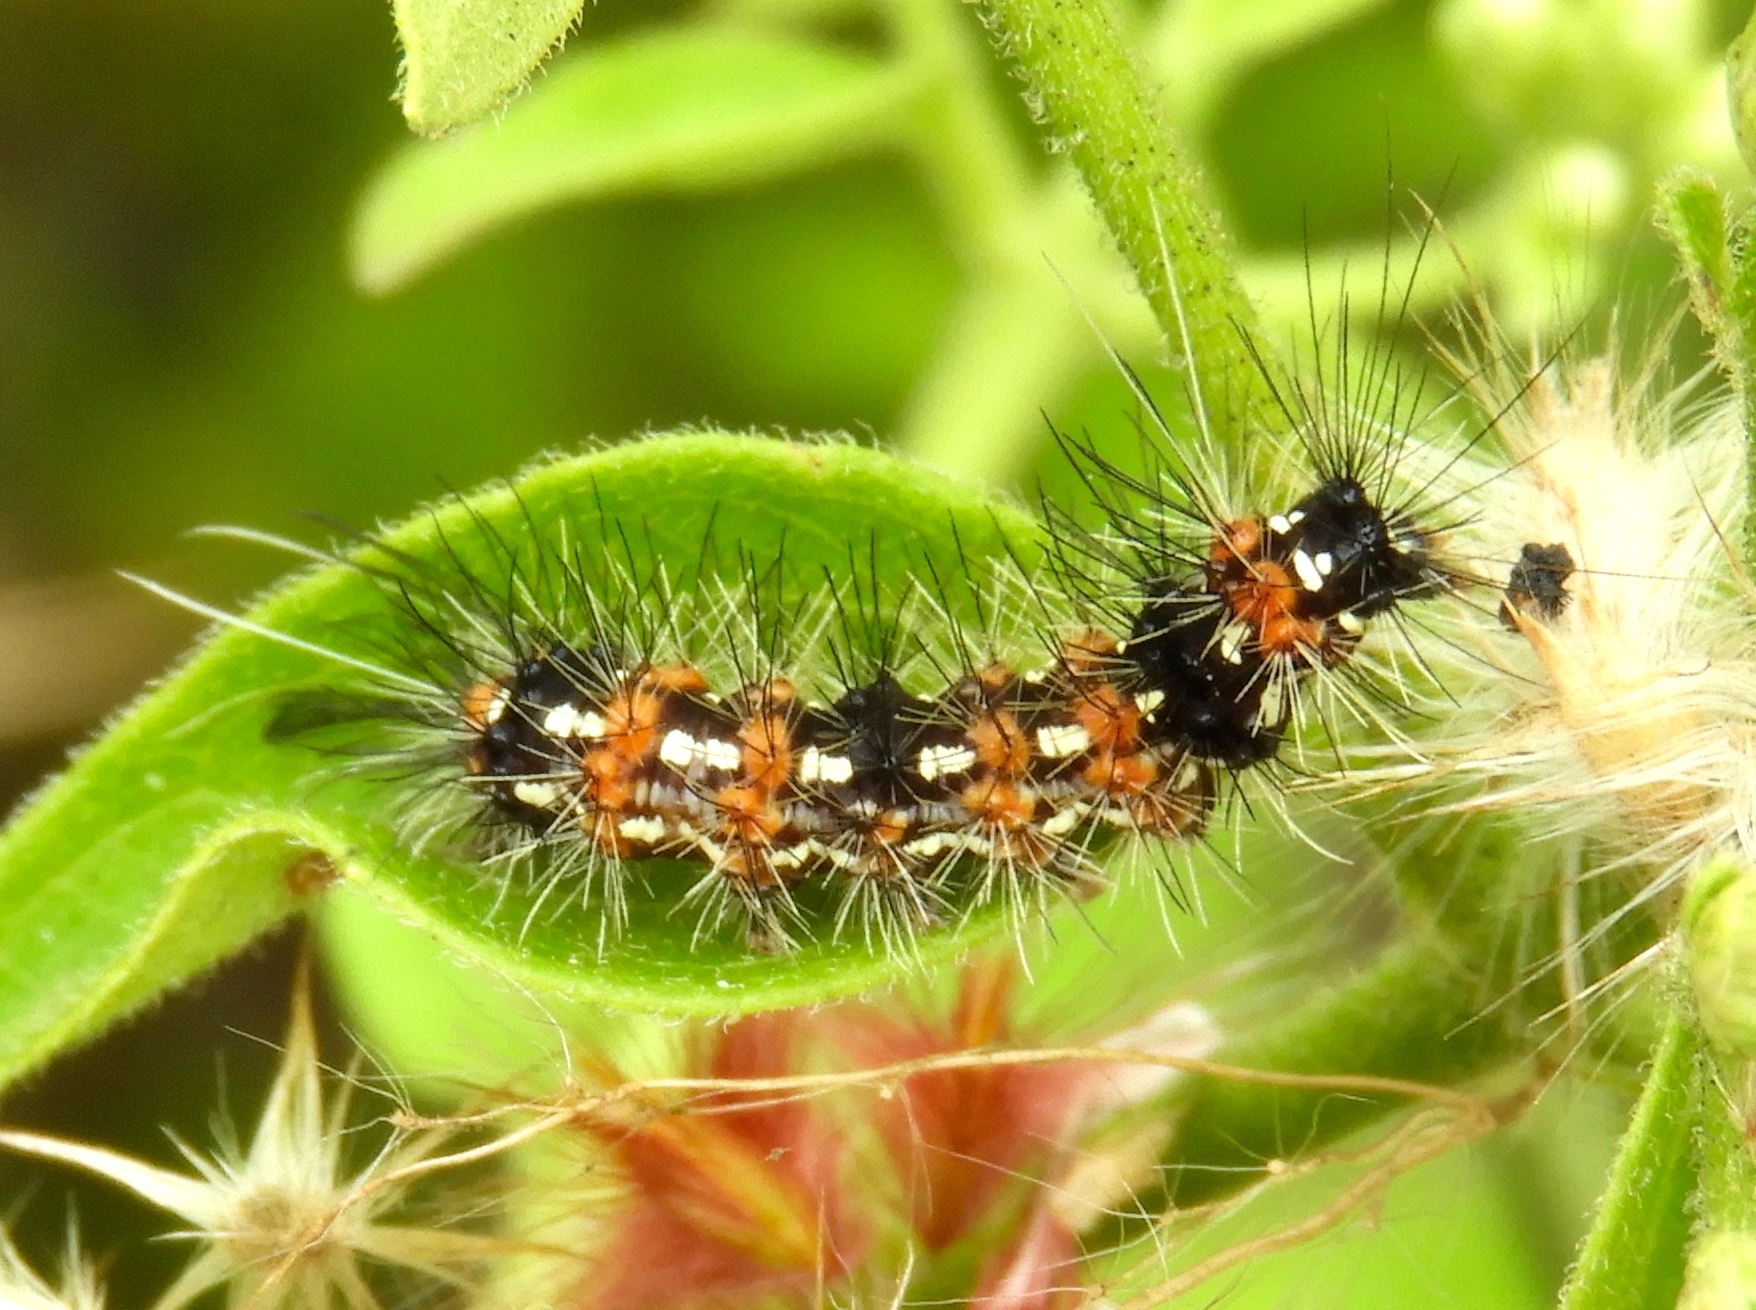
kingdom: Animalia
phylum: Arthropoda
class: Insecta
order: Lepidoptera
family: Erebidae
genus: Pareuchaetes
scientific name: Pareuchaetes insulata
